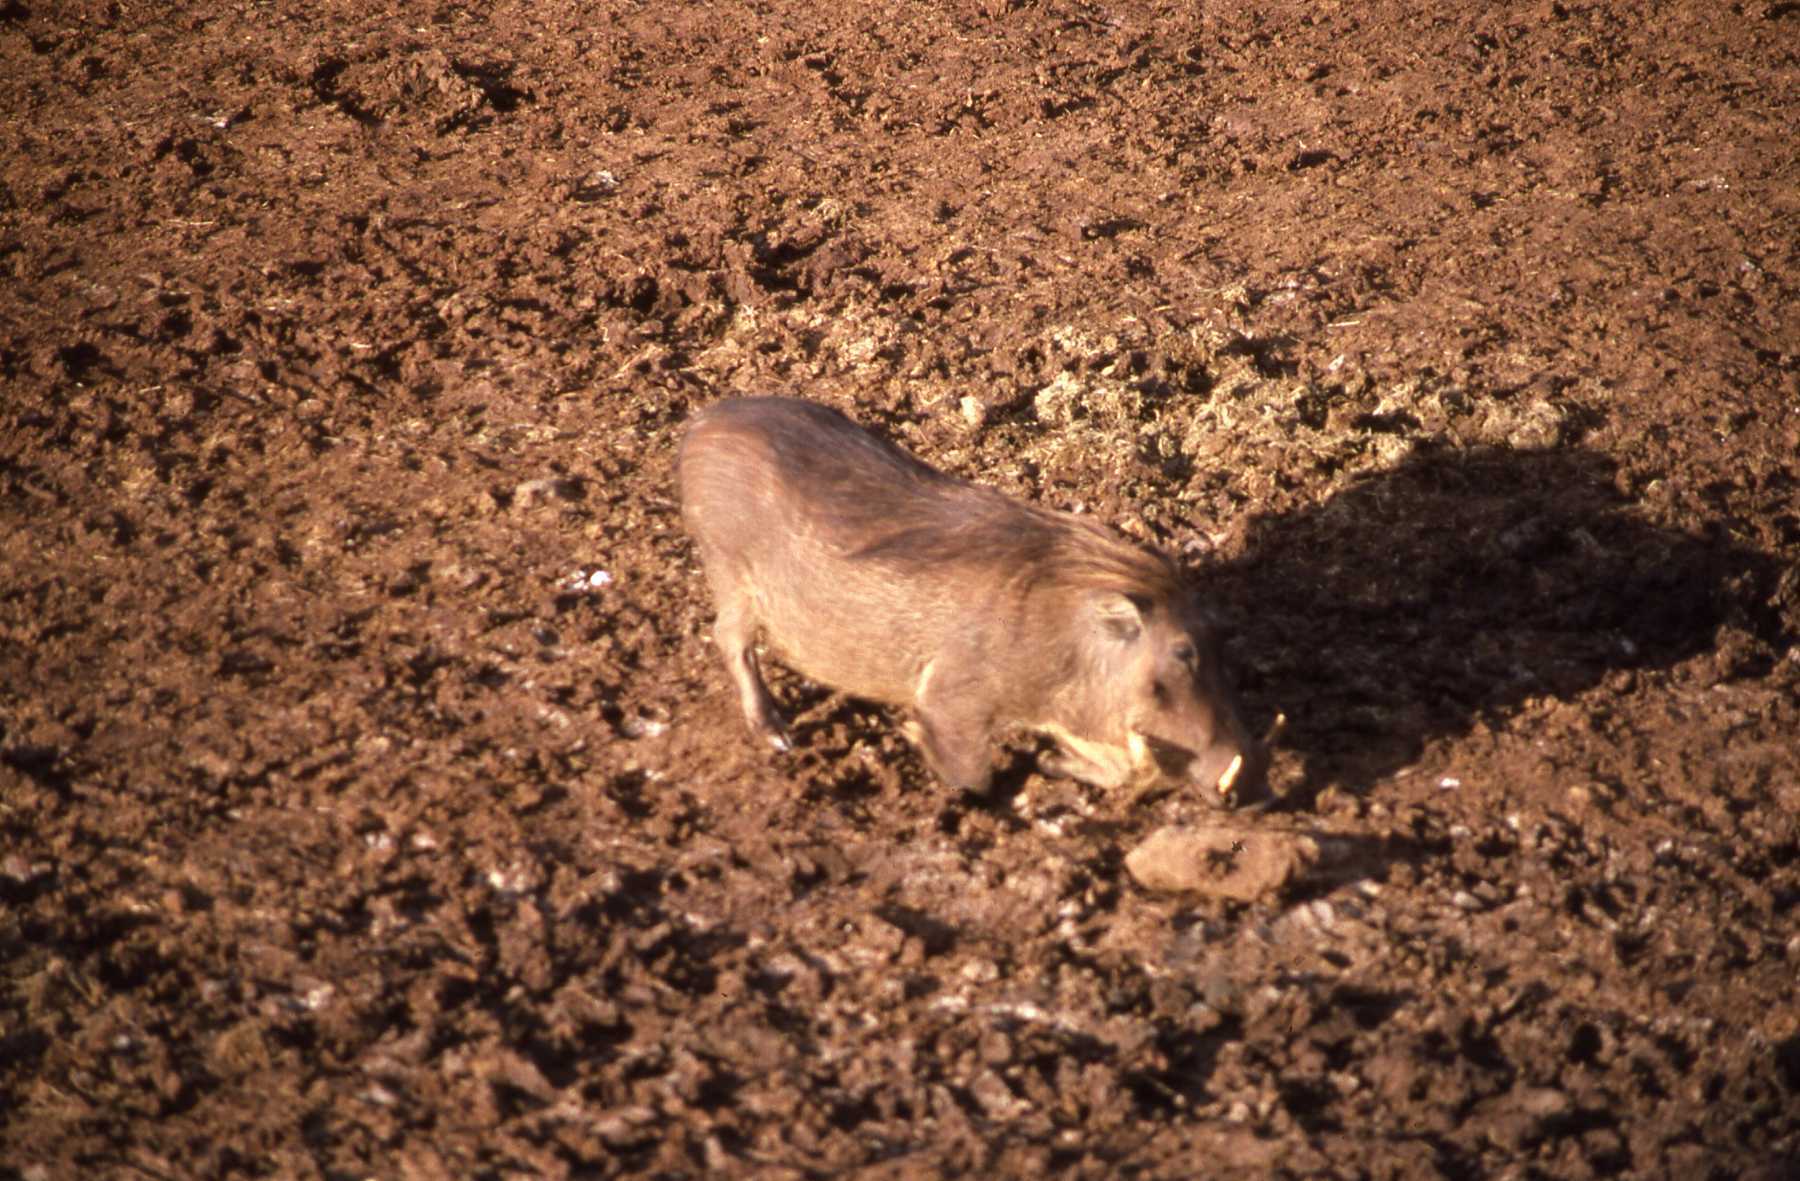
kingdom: Animalia
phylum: Chordata
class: Mammalia
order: Artiodactyla
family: Suidae
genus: Phacochoerus
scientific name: Phacochoerus africanus
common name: Common warthog
